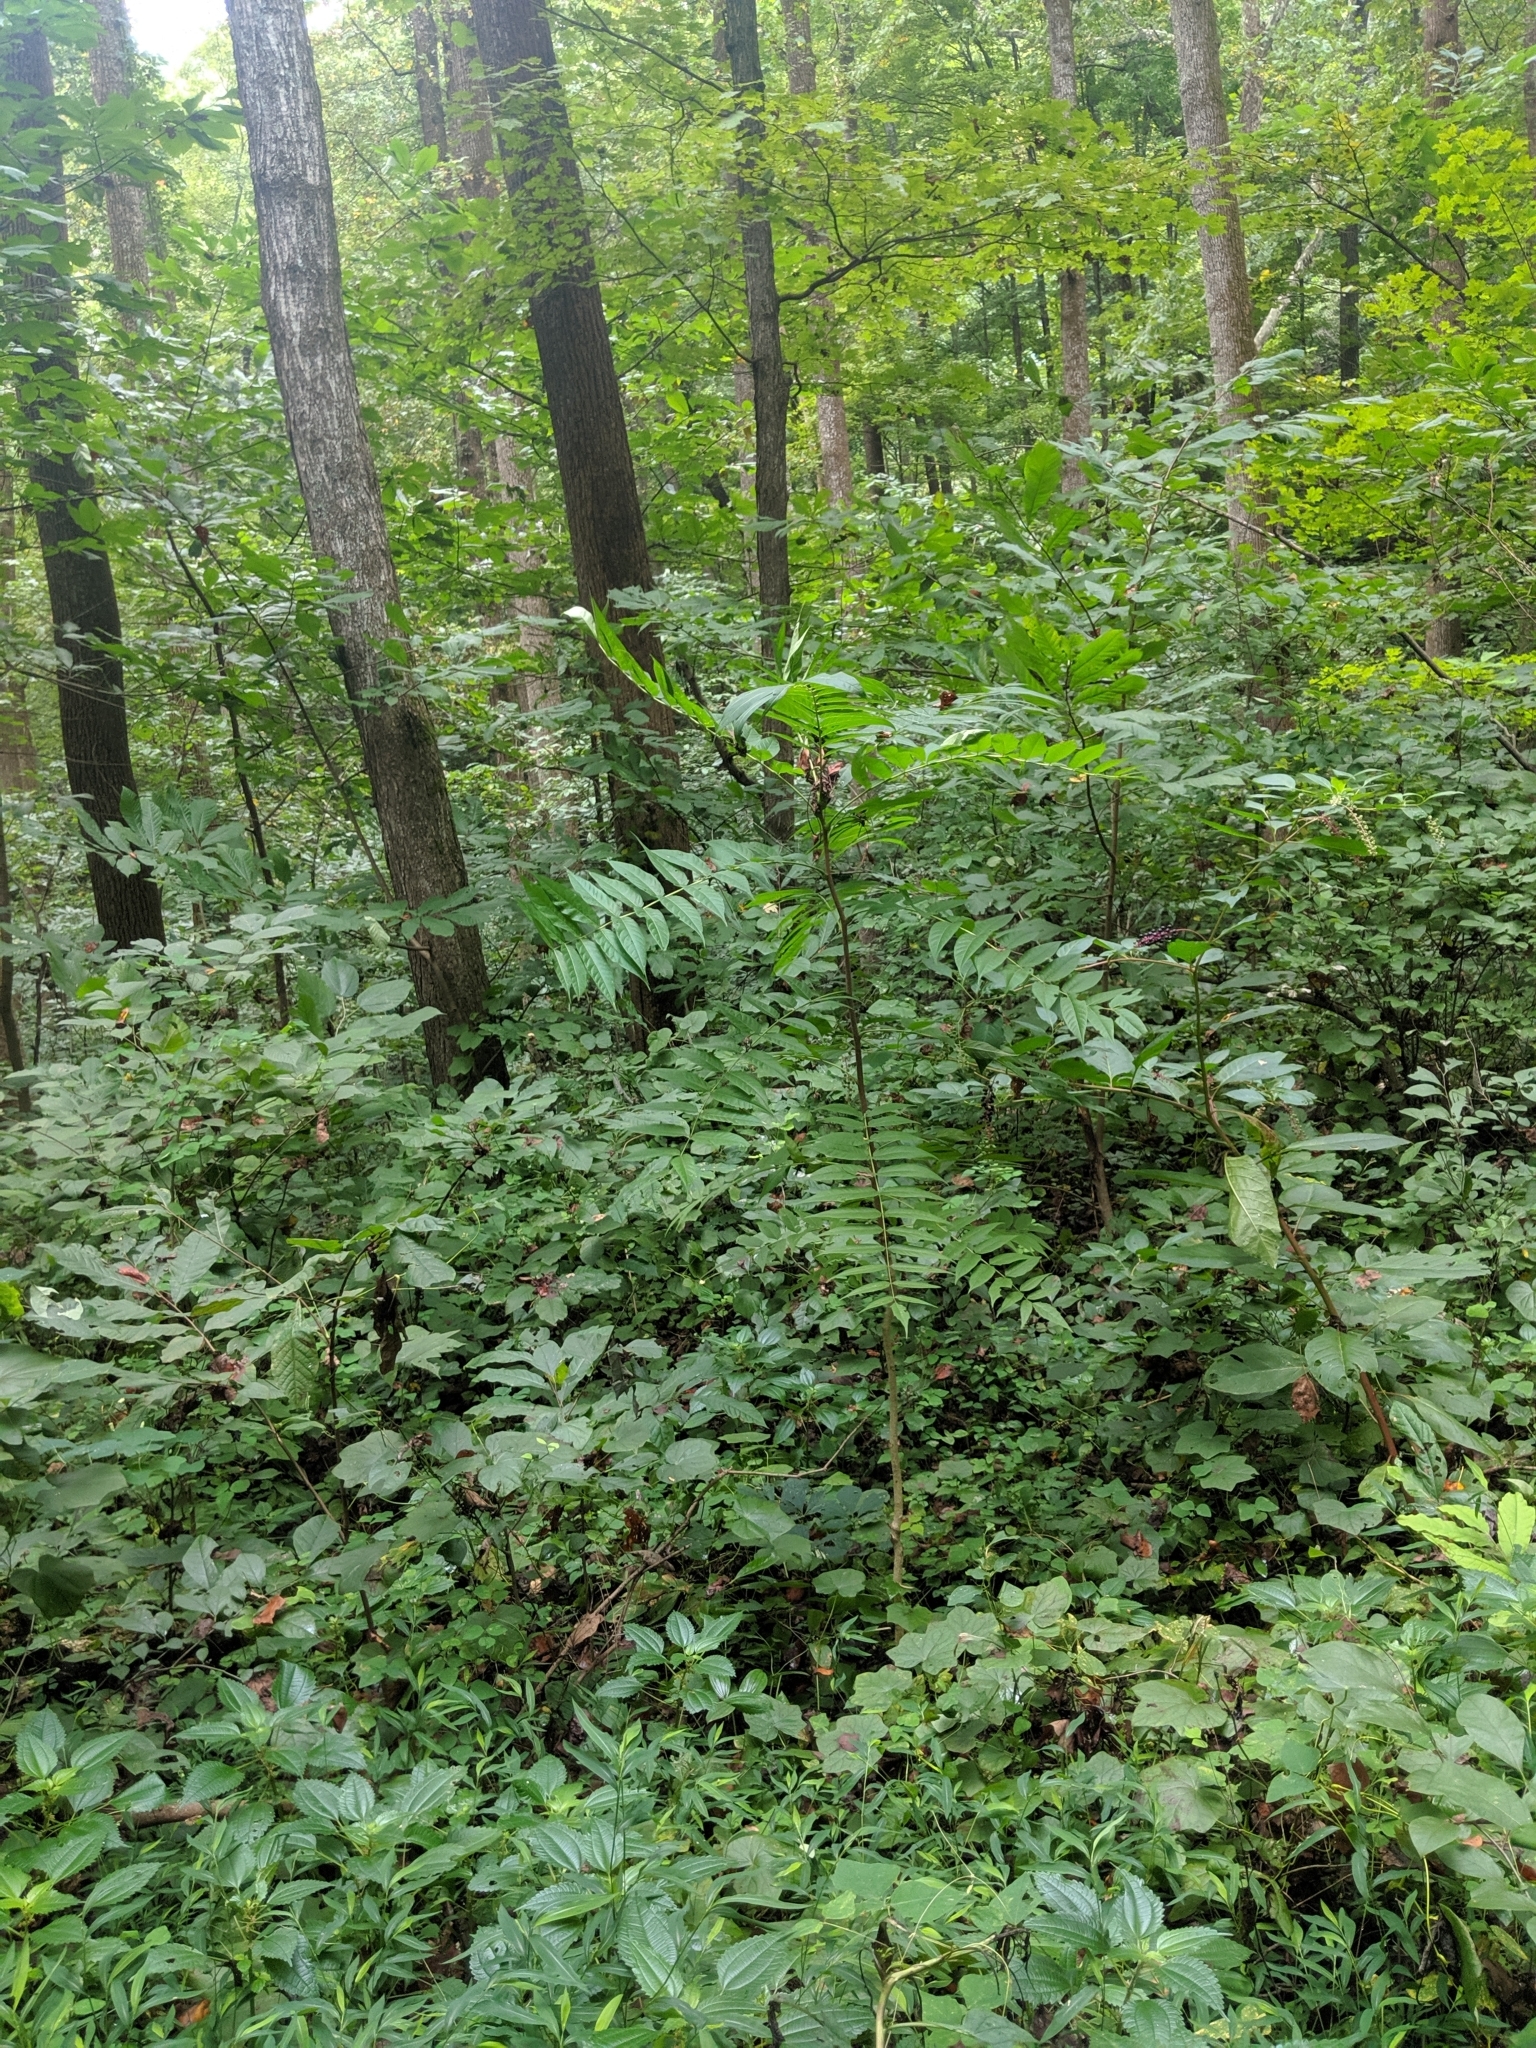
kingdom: Plantae
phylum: Tracheophyta
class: Magnoliopsida
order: Sapindales
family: Simaroubaceae
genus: Ailanthus
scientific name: Ailanthus altissima
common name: Tree-of-heaven
